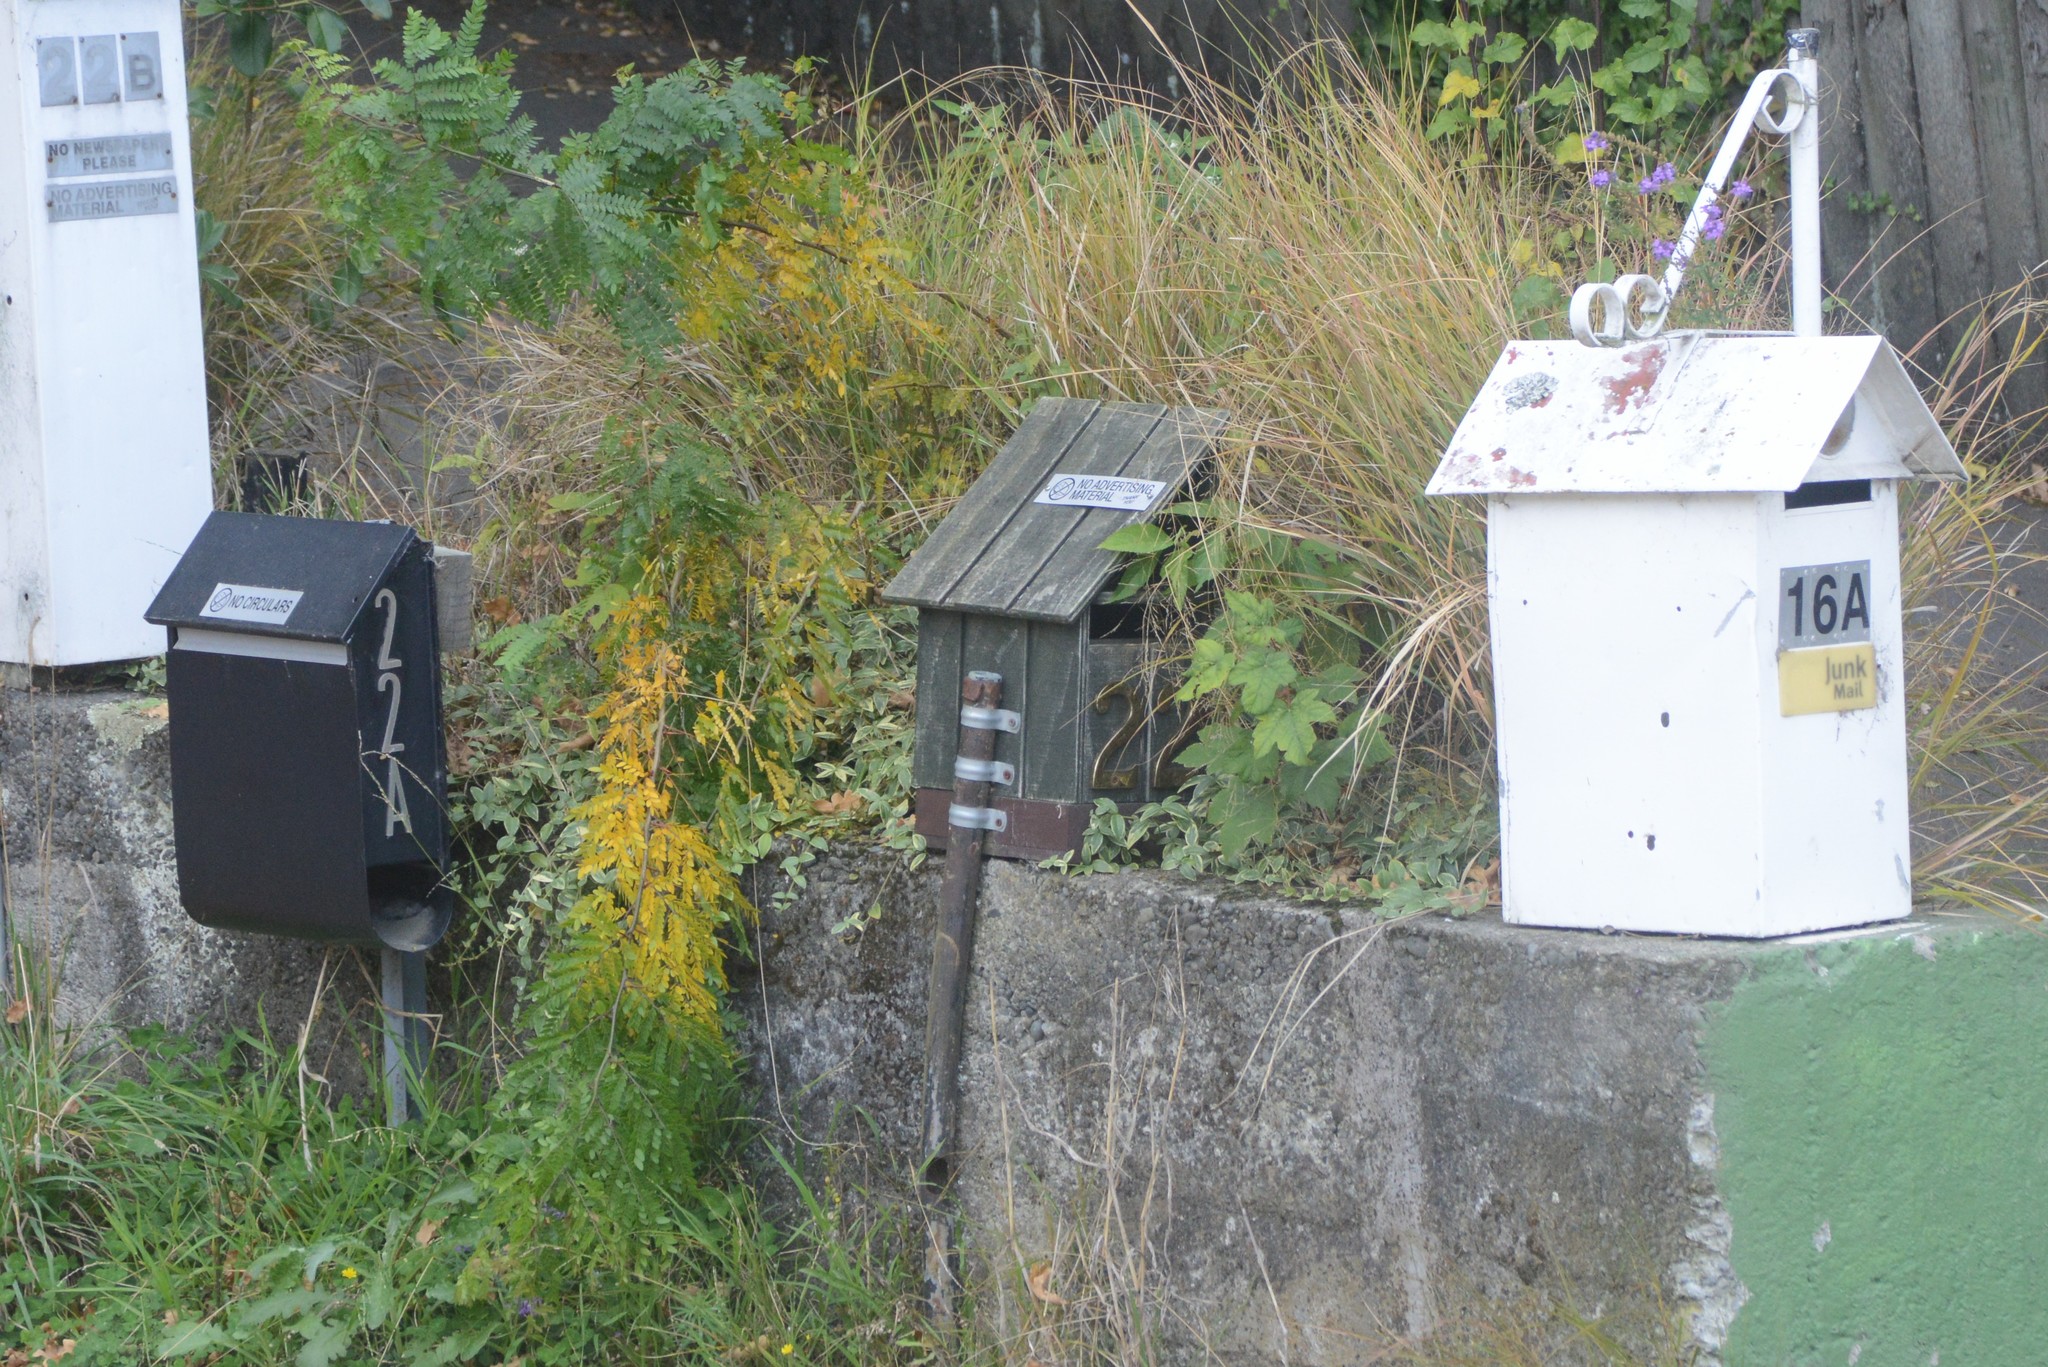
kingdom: Plantae
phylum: Tracheophyta
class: Magnoliopsida
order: Sapindales
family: Sapindaceae
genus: Acer
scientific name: Acer pseudoplatanus
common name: Sycamore
